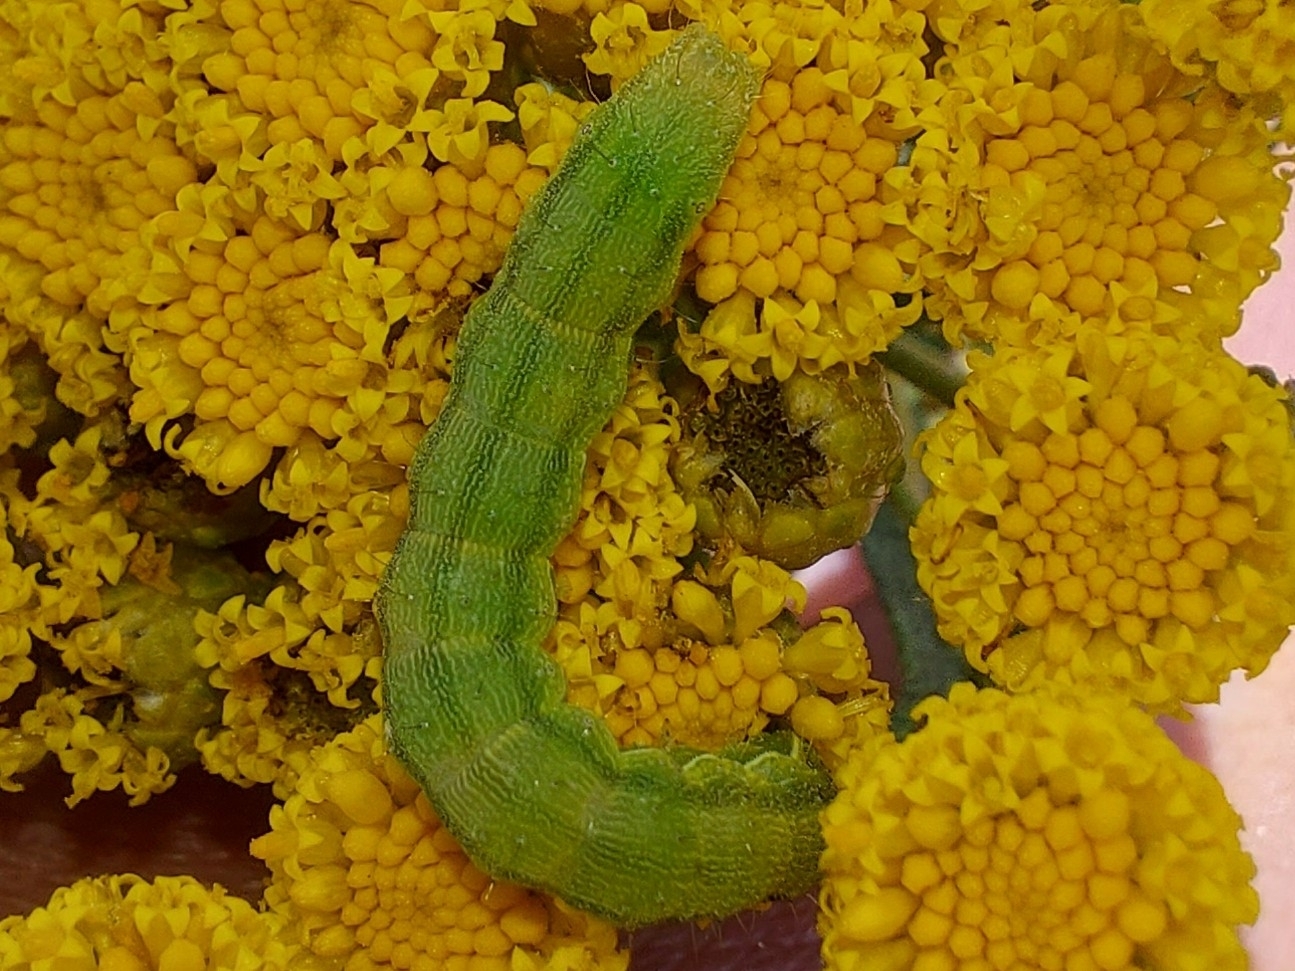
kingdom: Animalia
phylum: Arthropoda
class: Insecta
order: Lepidoptera
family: Noctuidae
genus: Helicoverpa
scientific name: Helicoverpa armigera
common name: Cotton bollworm
